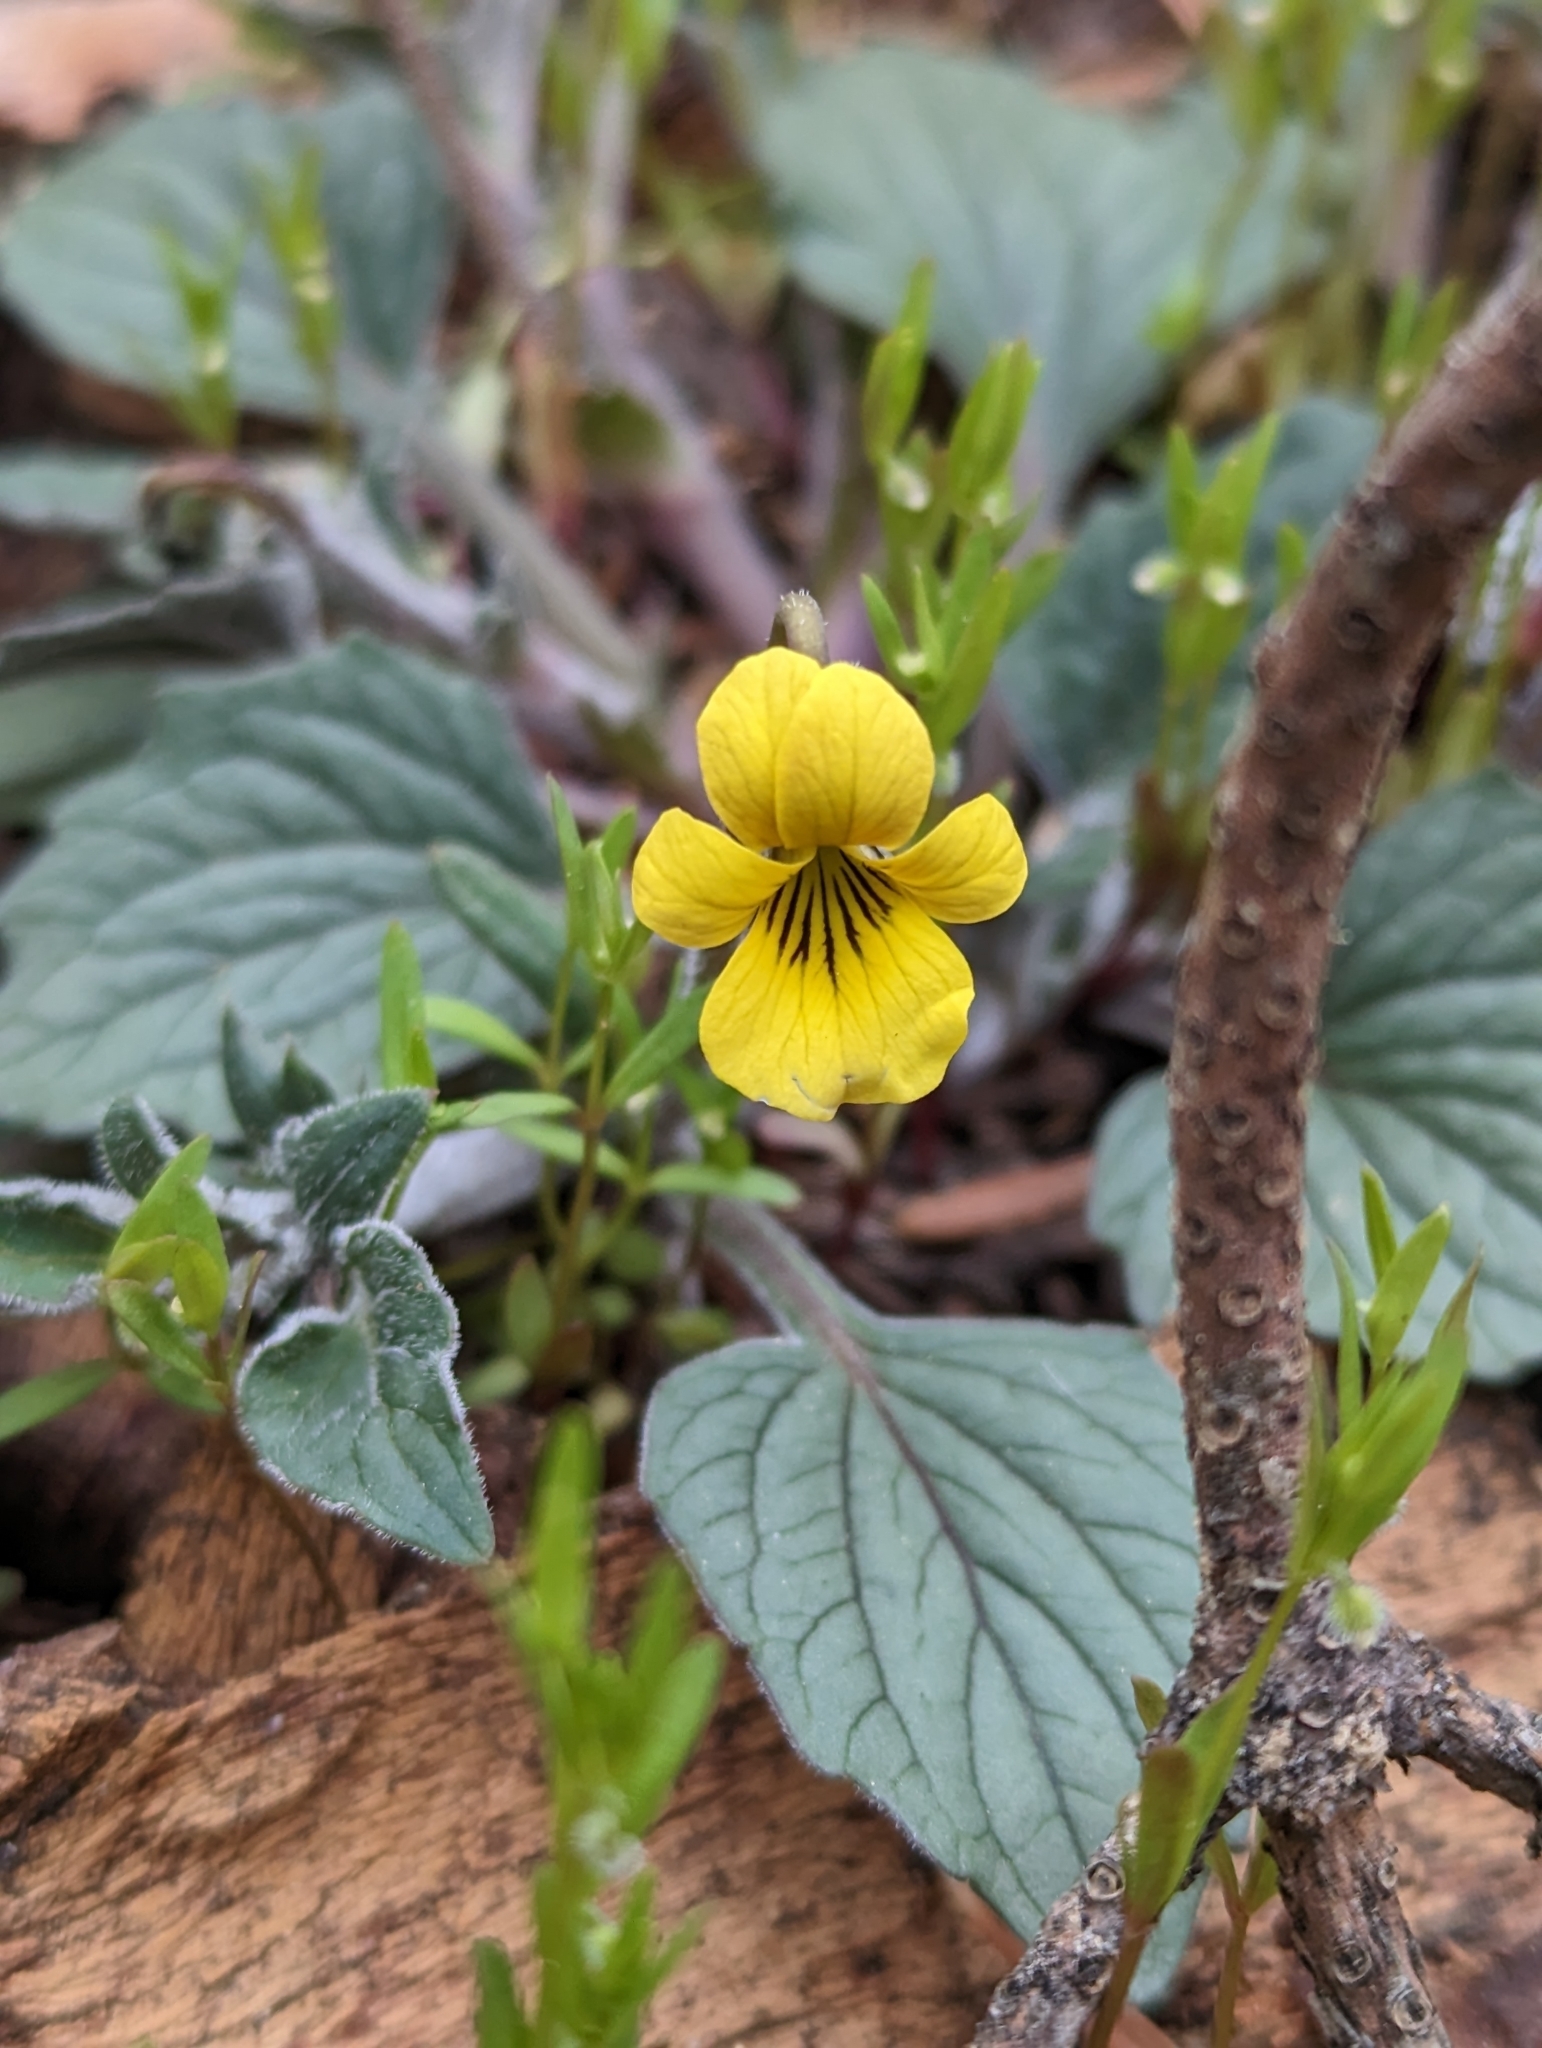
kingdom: Plantae
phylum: Tracheophyta
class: Magnoliopsida
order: Malpighiales
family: Violaceae
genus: Viola
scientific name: Viola purpurea
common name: Pine violet
